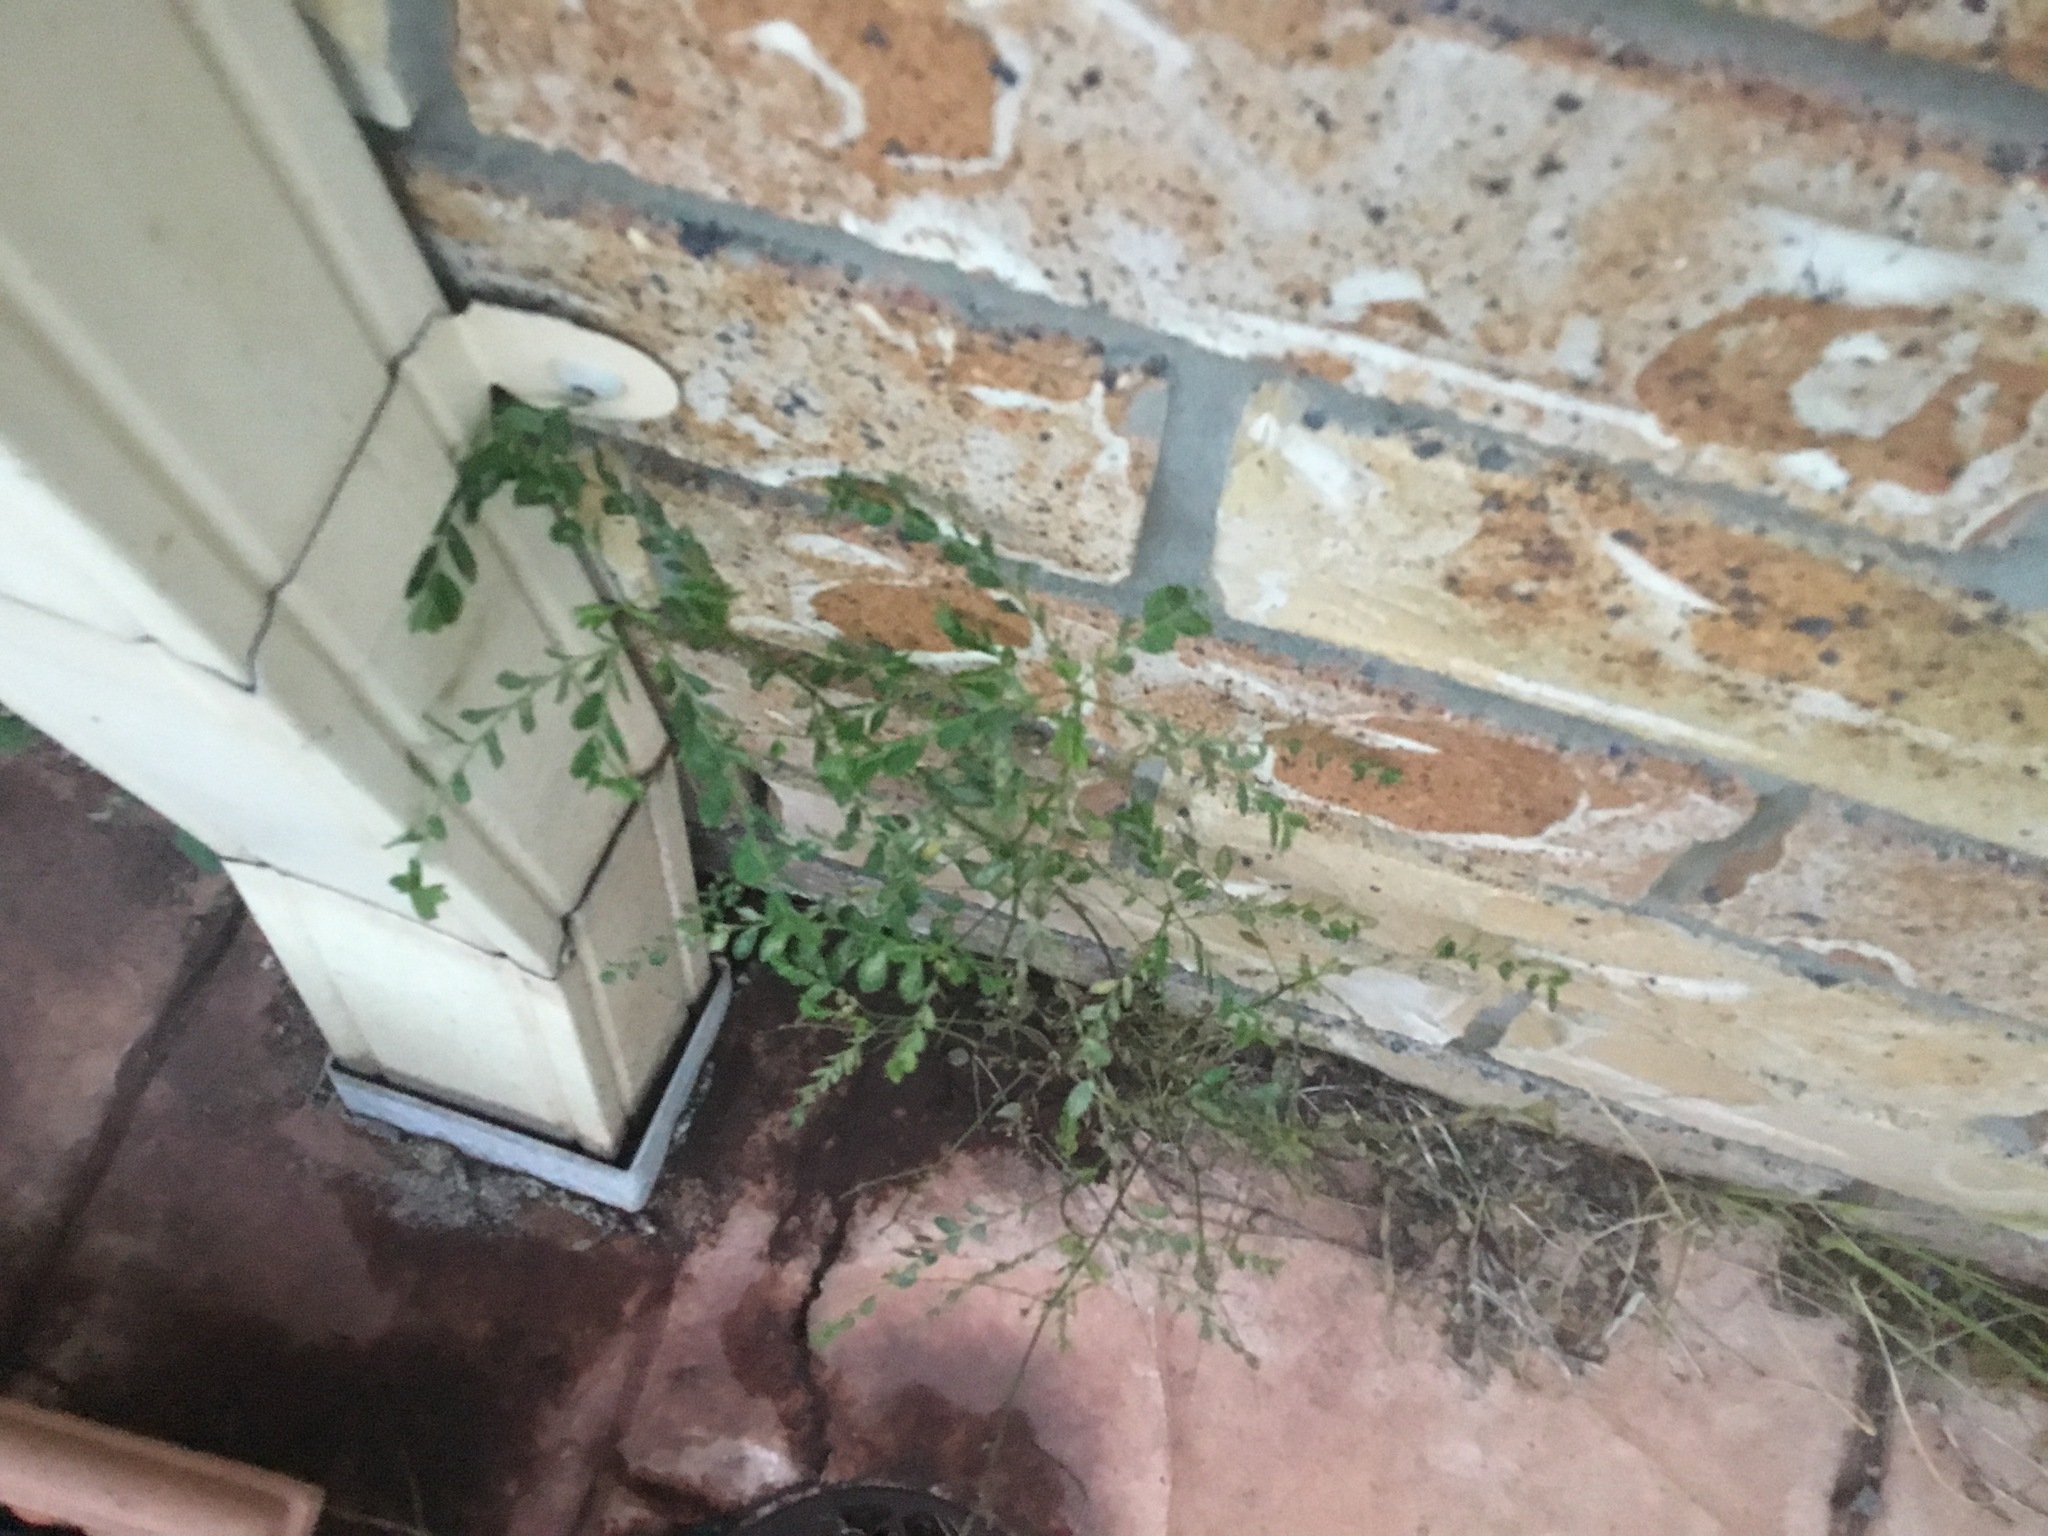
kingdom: Plantae
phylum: Tracheophyta
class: Magnoliopsida
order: Malpighiales
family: Phyllanthaceae
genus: Phyllanthus
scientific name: Phyllanthus tenellus
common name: Mascarene island leaf-flower
